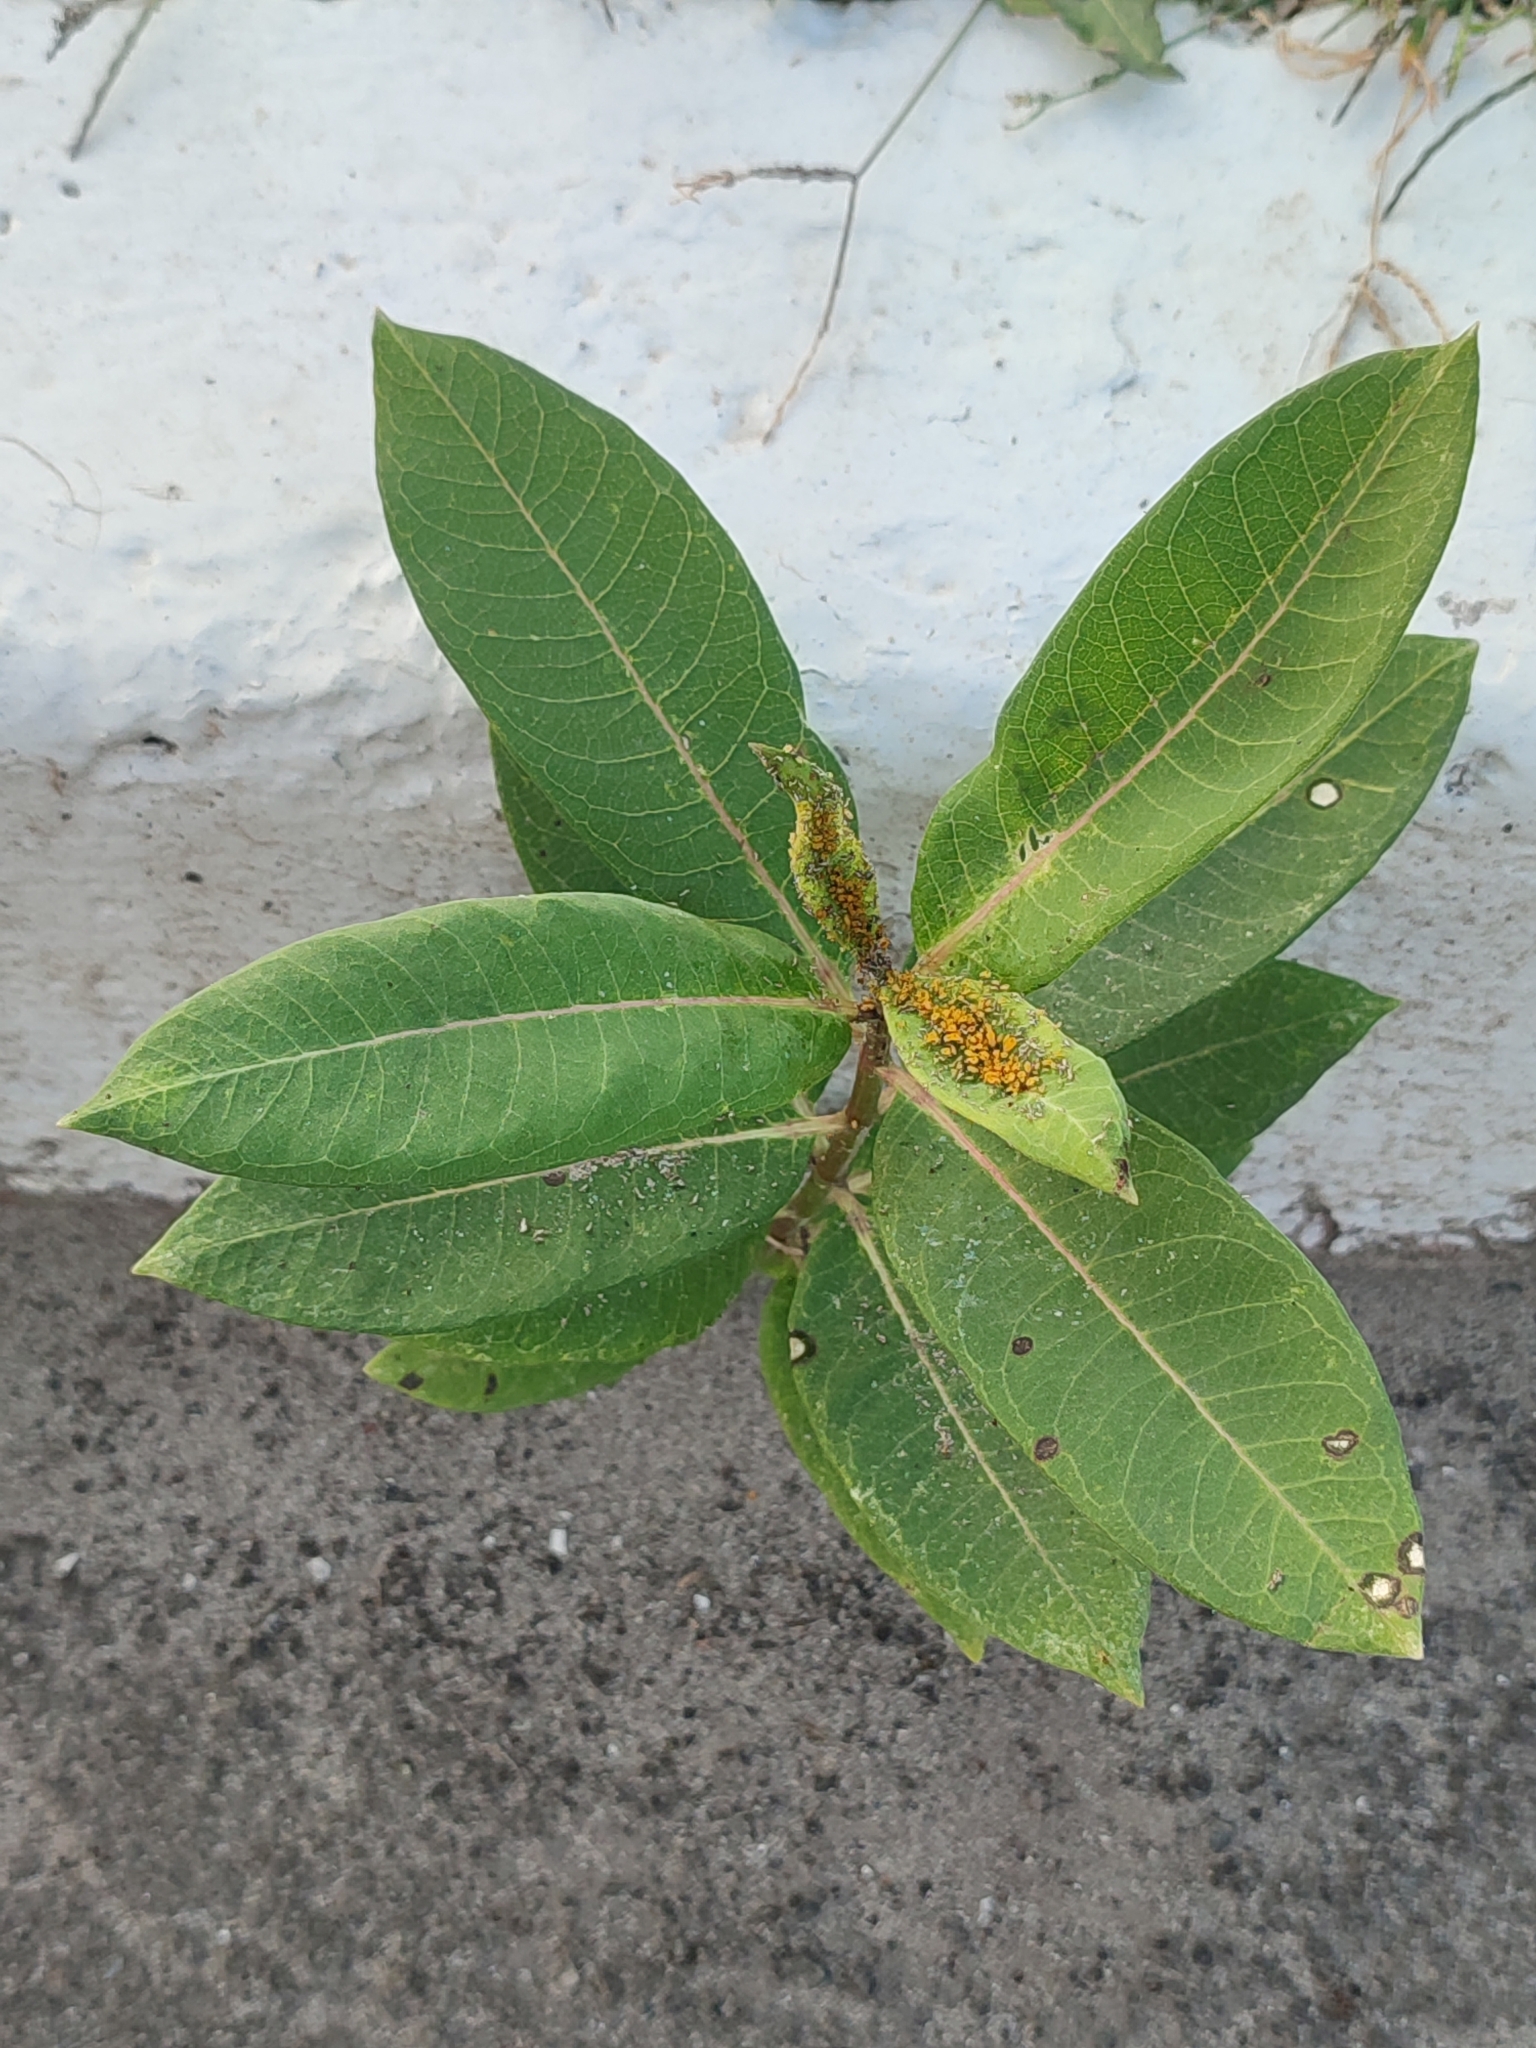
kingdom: Plantae
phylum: Tracheophyta
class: Magnoliopsida
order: Gentianales
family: Apocynaceae
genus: Asclepias
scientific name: Asclepias syriaca
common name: Common milkweed
